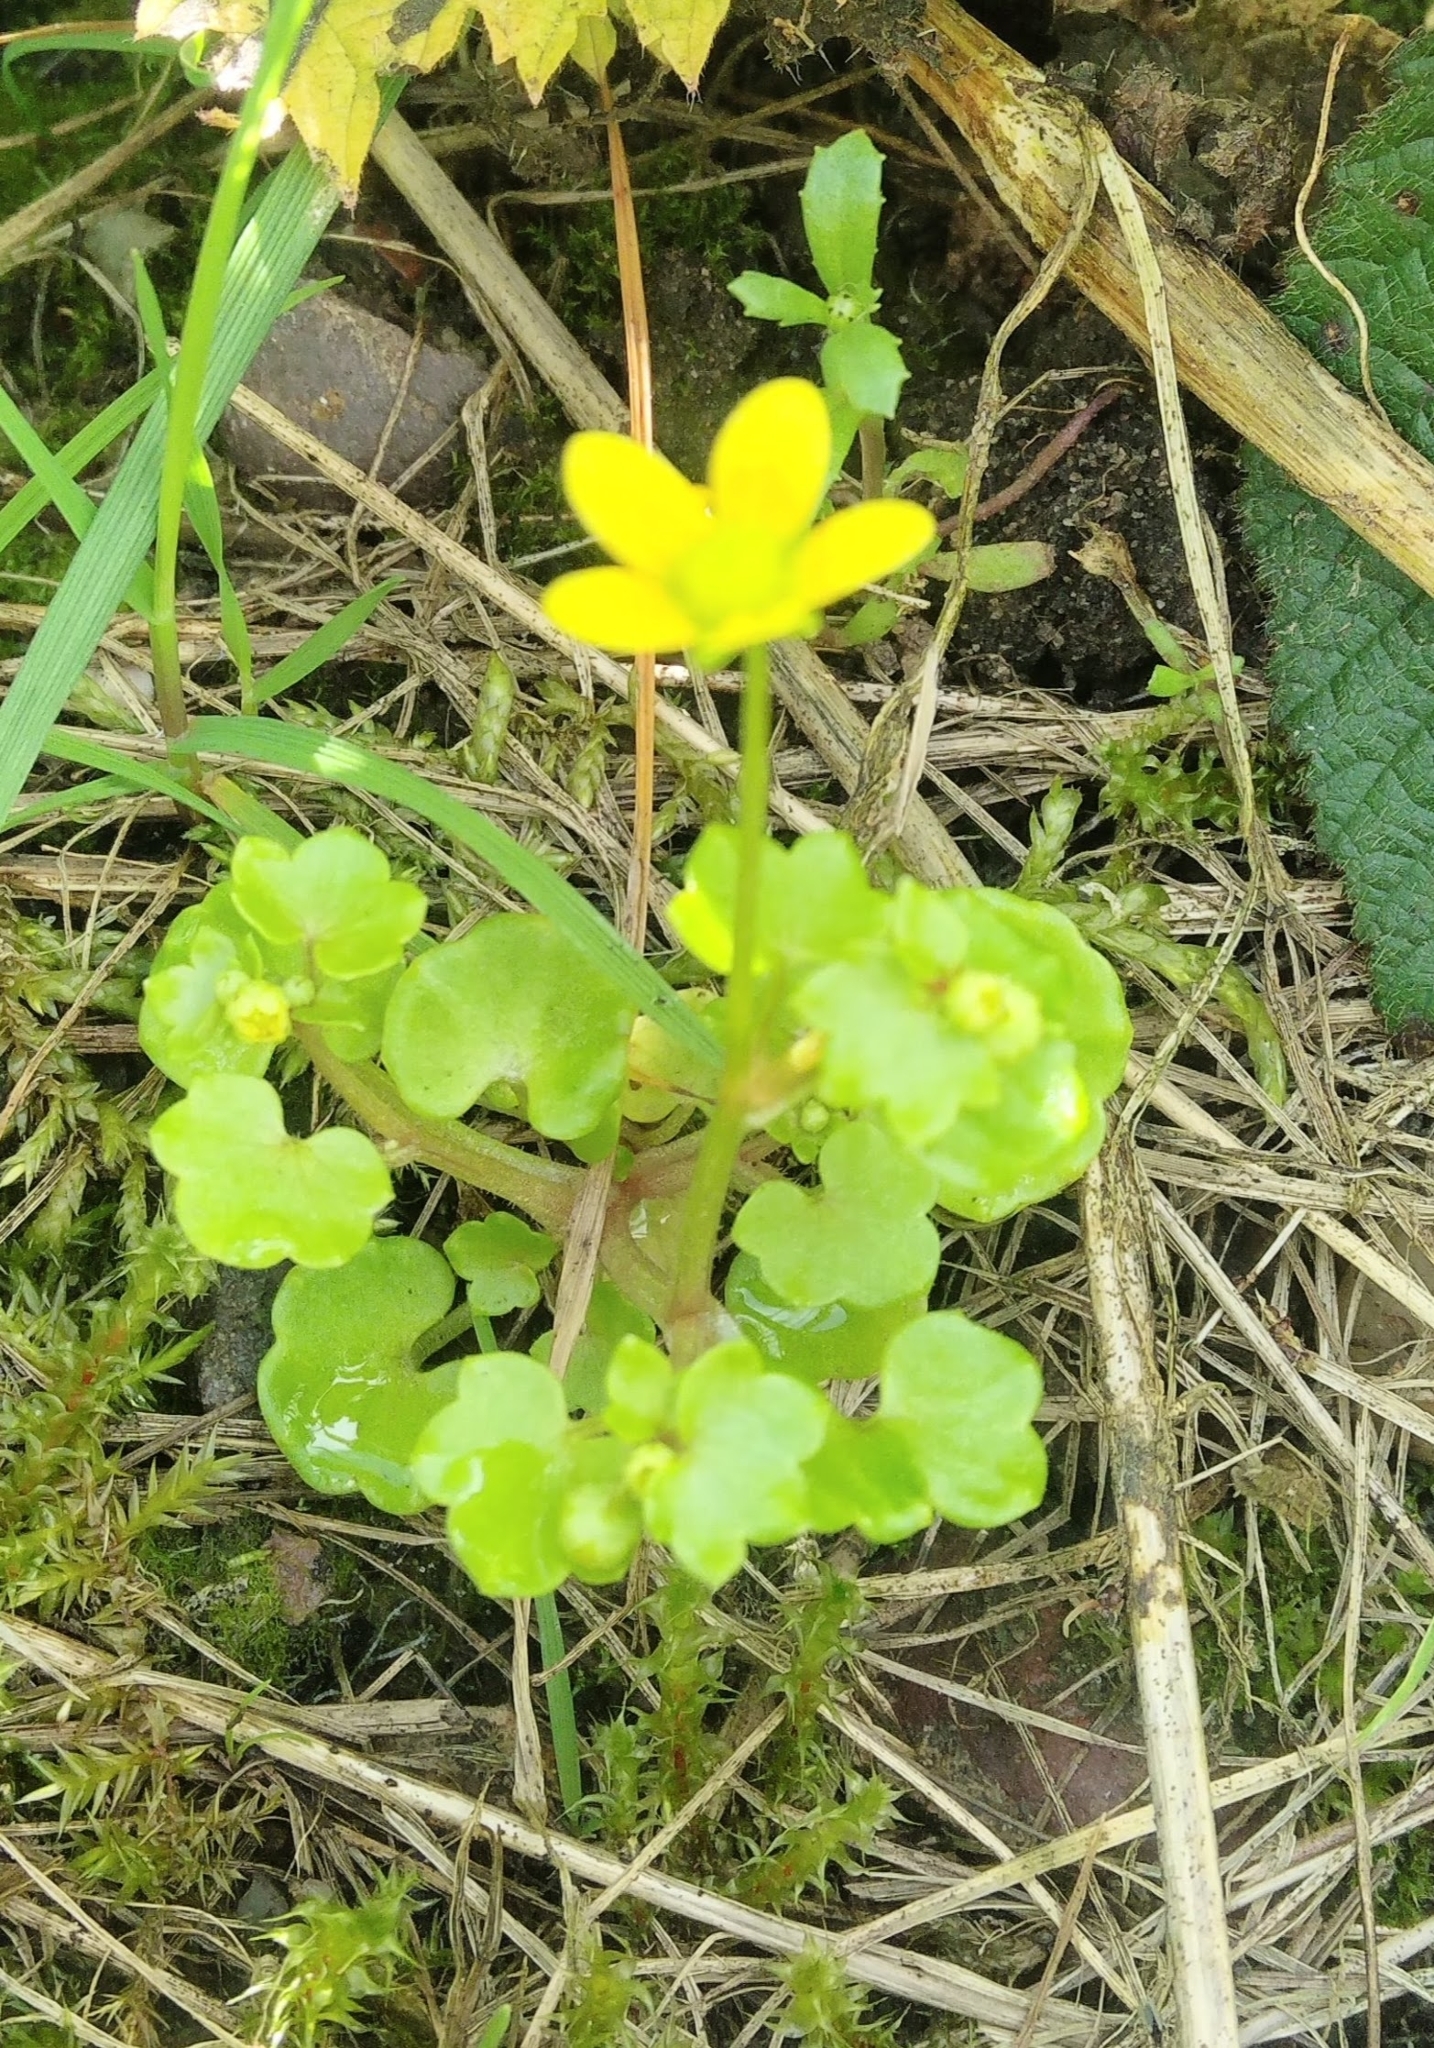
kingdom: Plantae
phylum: Tracheophyta
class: Magnoliopsida
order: Saxifragales
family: Saxifragaceae
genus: Saxifraga
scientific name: Saxifraga cymbalaria
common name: Celandine saxifrage
